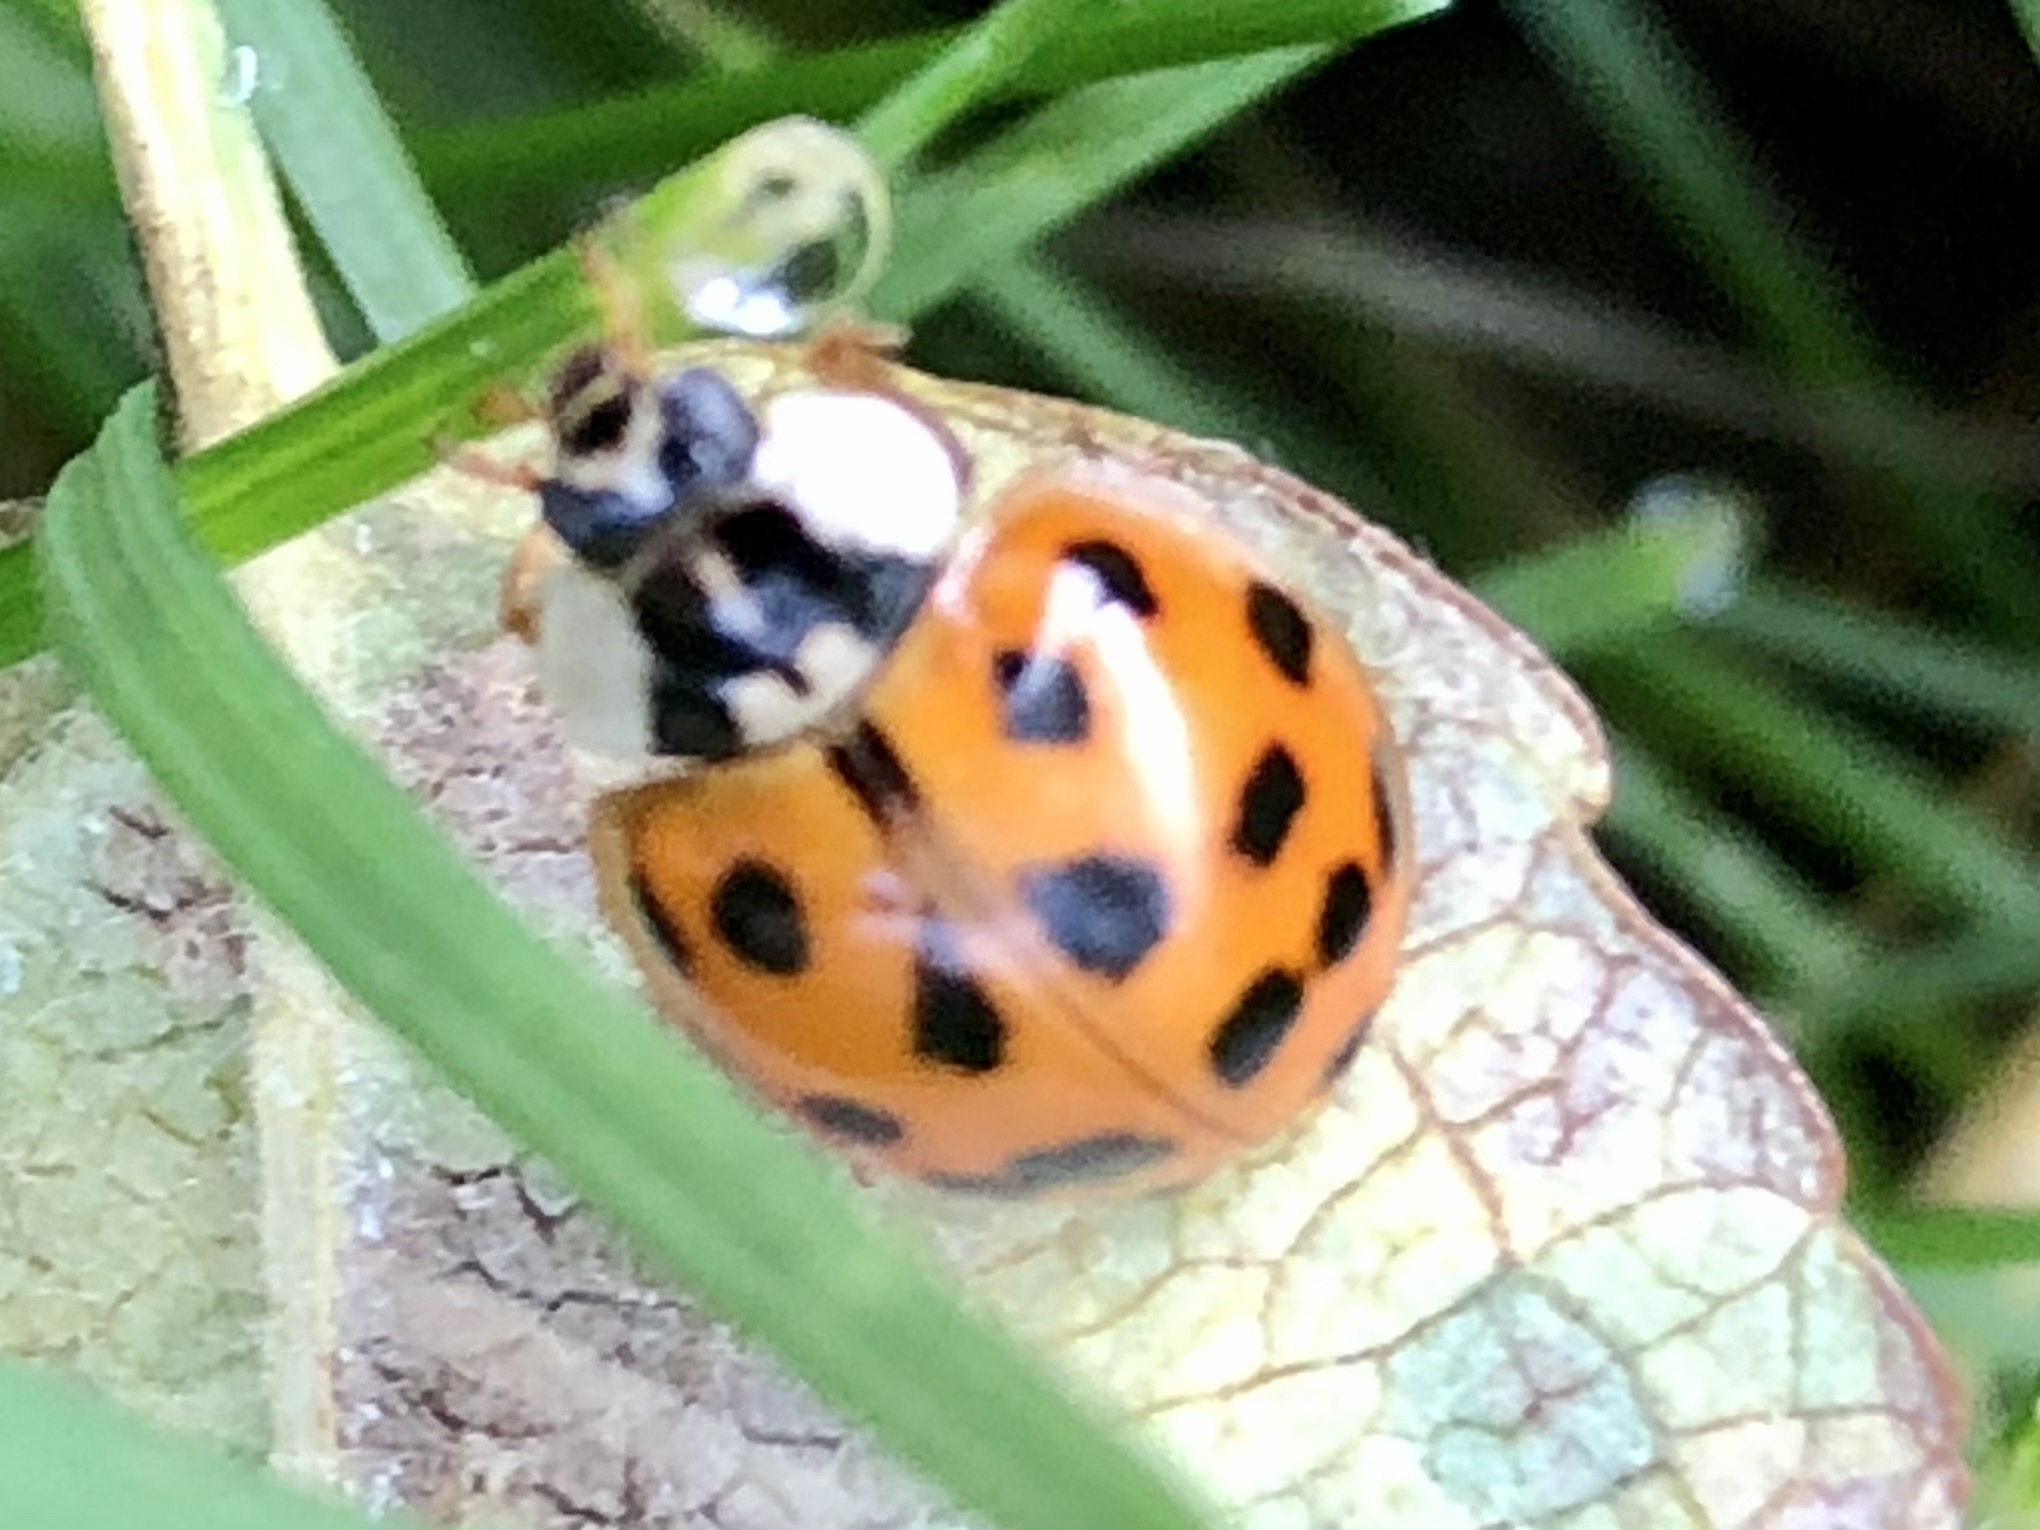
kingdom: Animalia
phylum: Arthropoda
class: Insecta
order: Coleoptera
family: Coccinellidae
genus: Harmonia
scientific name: Harmonia axyridis
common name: Harlequin ladybird
